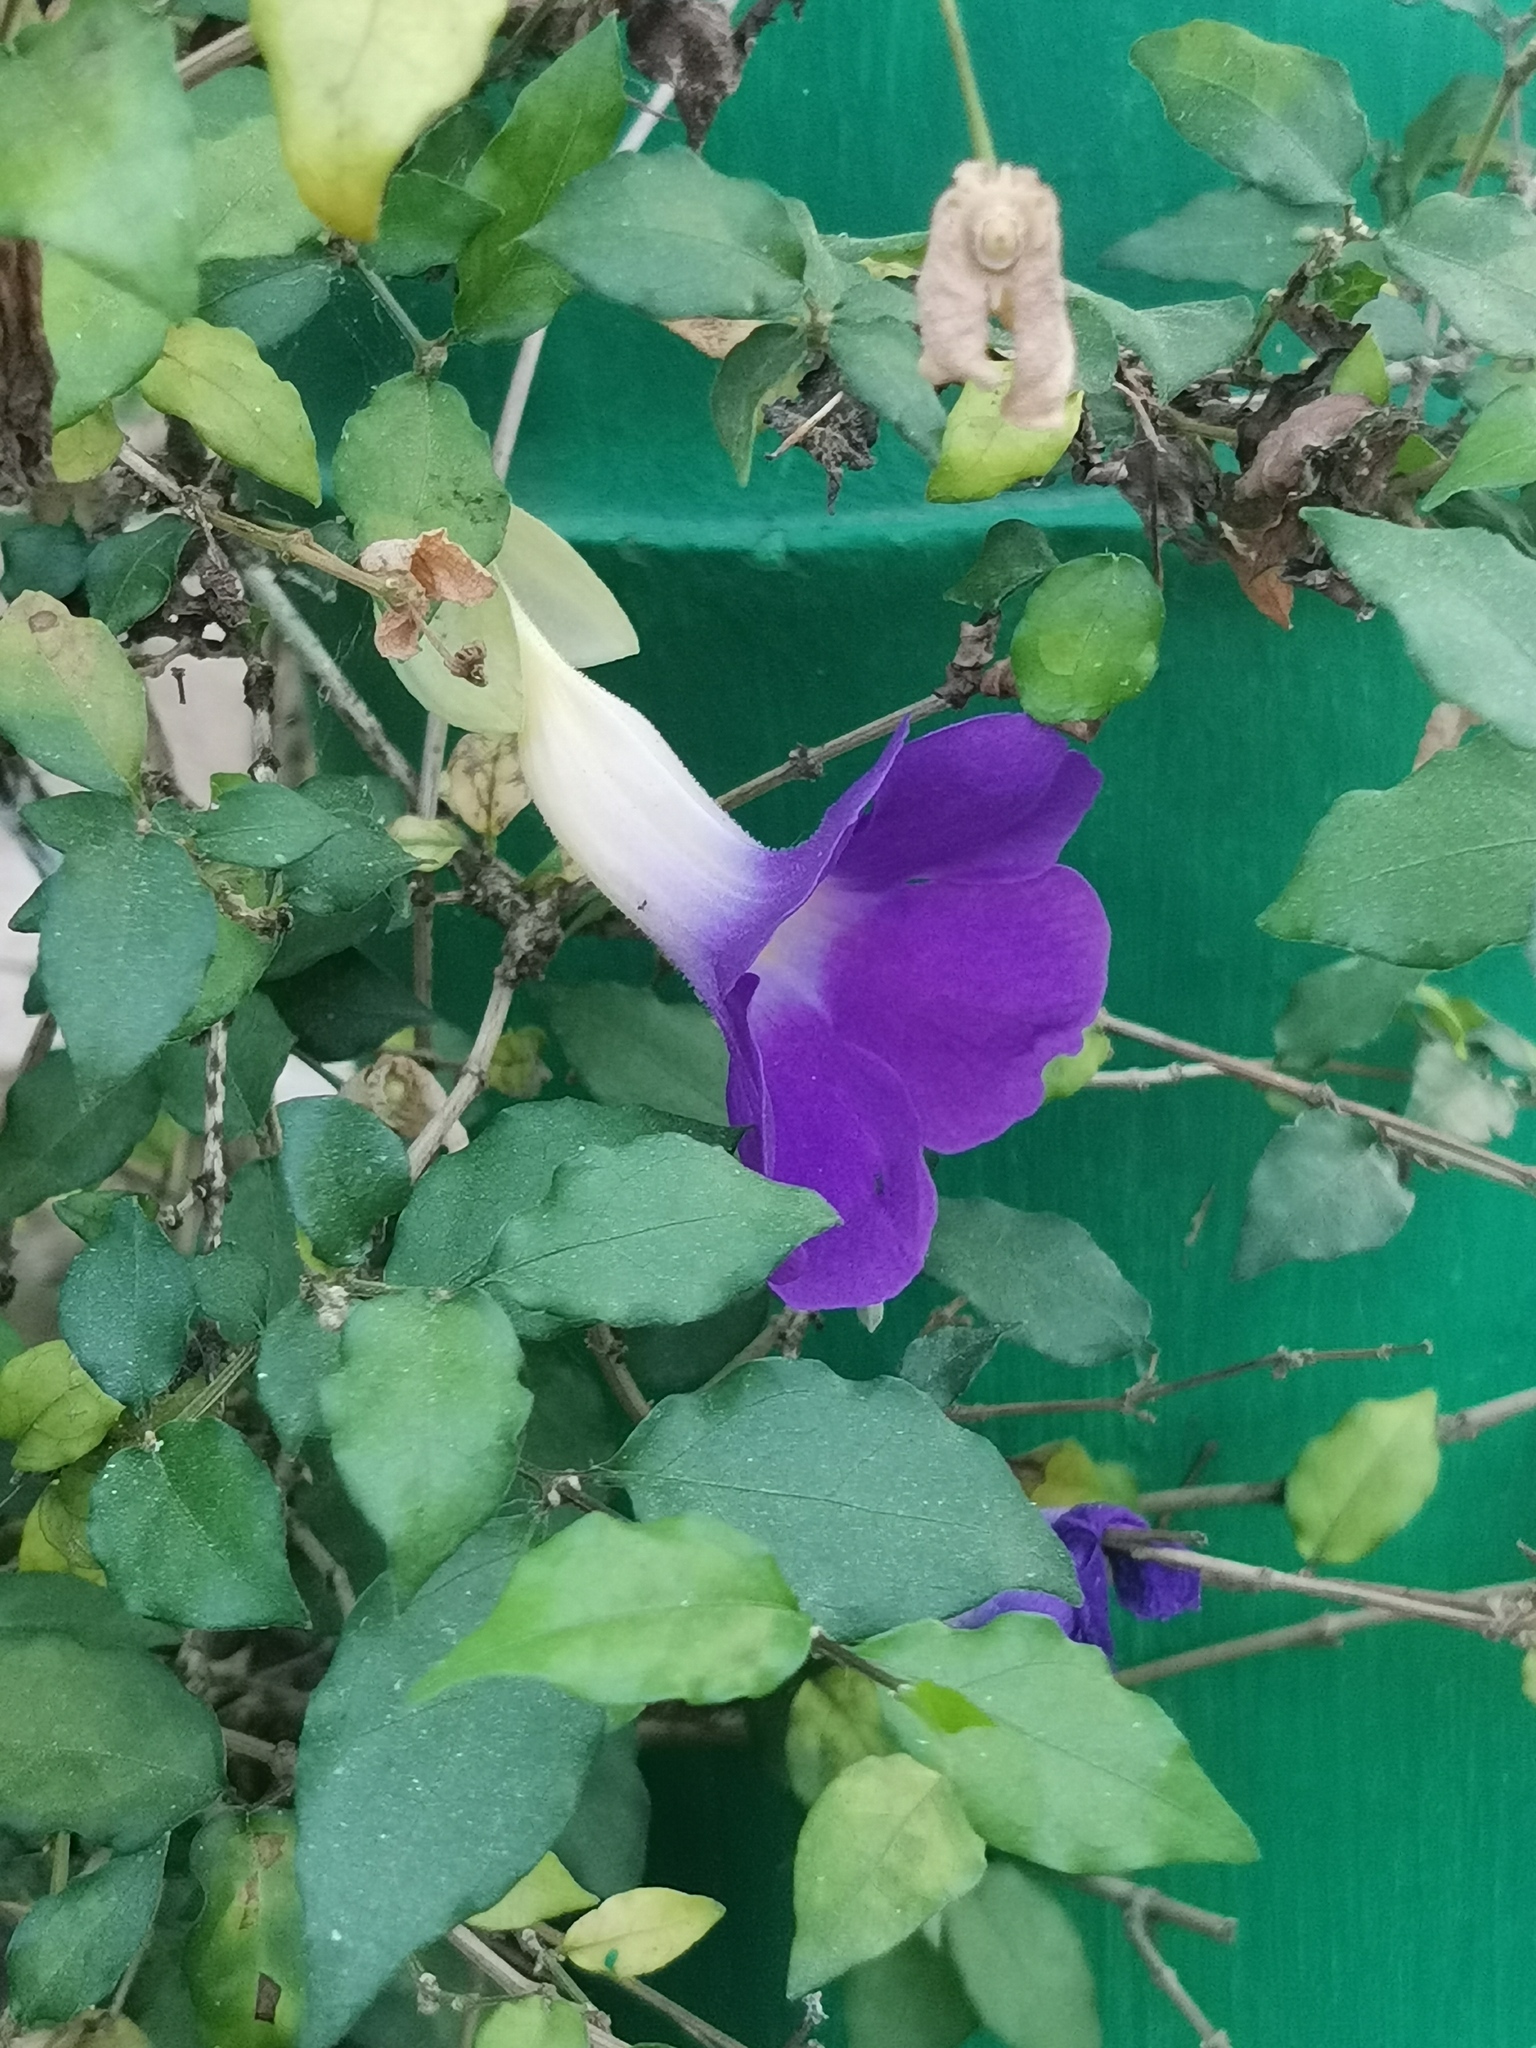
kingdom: Plantae
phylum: Tracheophyta
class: Magnoliopsida
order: Lamiales
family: Acanthaceae
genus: Thunbergia
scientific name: Thunbergia erecta
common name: Bush clockvine
